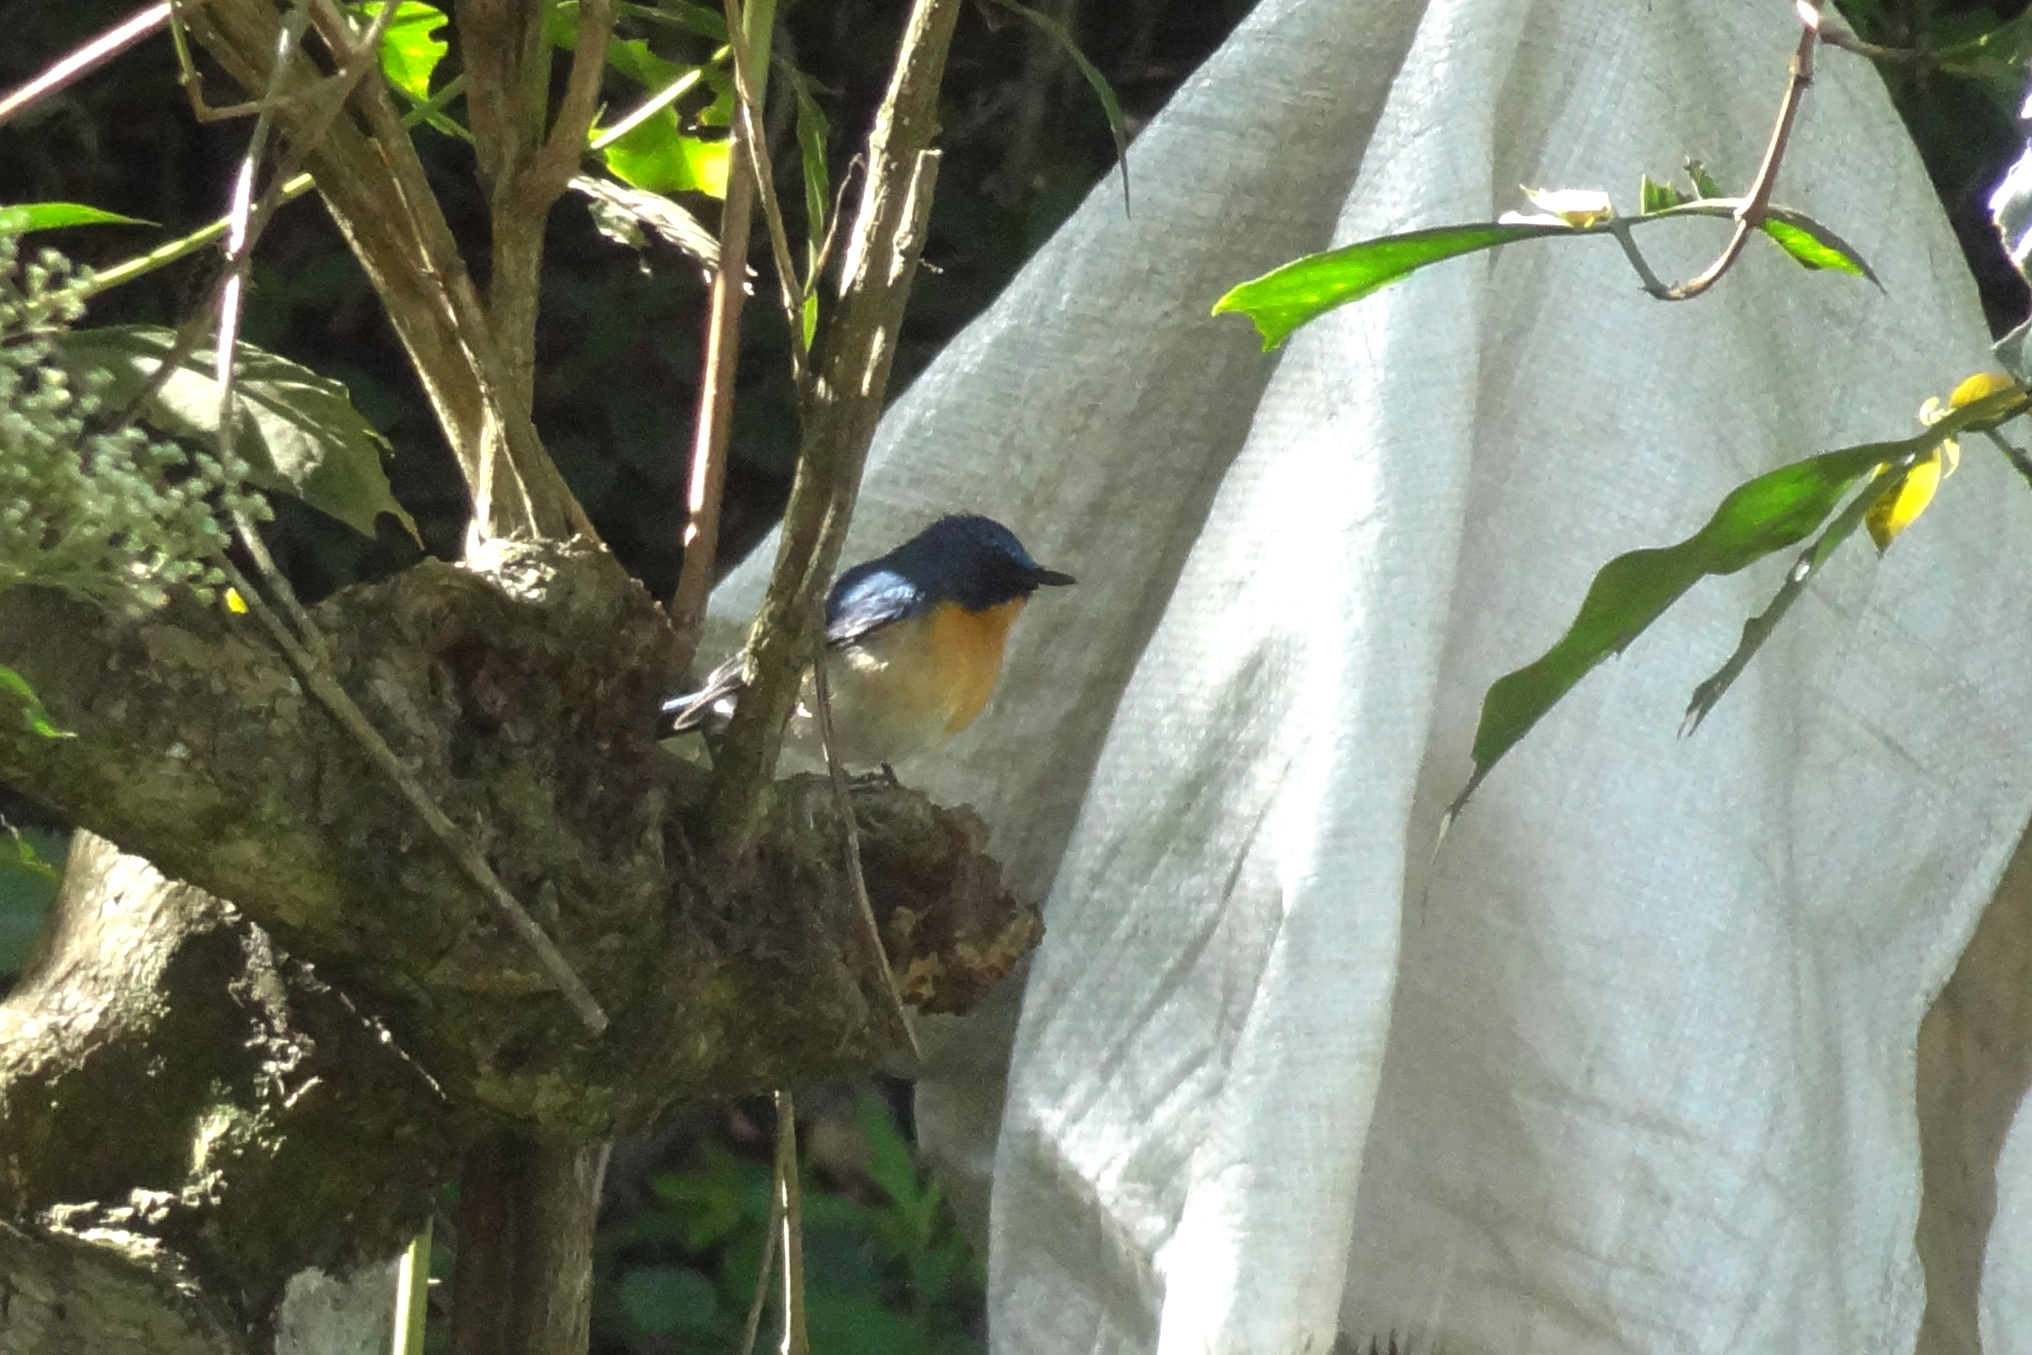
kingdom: Animalia
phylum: Chordata
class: Aves
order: Passeriformes
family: Muscicapidae
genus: Cyornis
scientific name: Cyornis tickelliae
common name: Tickell's blue flycatcher
